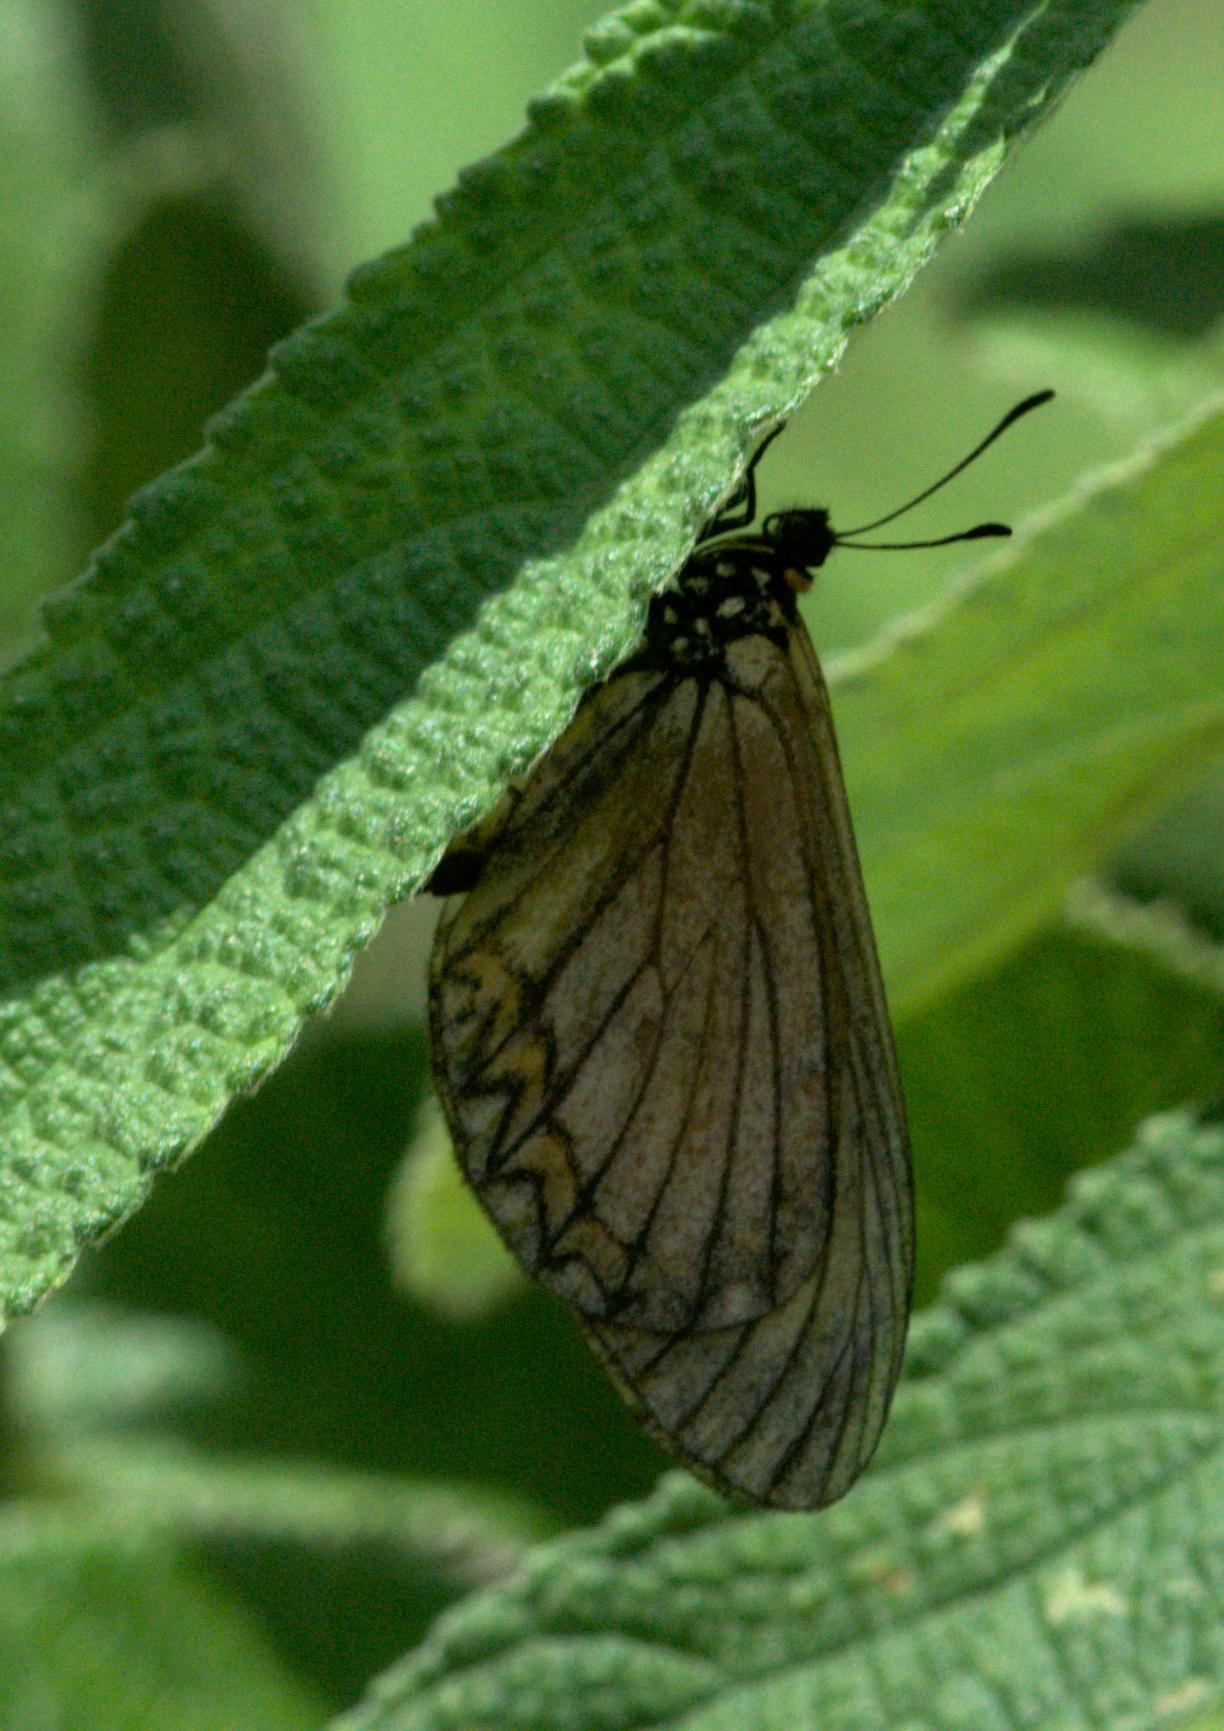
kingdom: Animalia
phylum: Arthropoda
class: Insecta
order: Lepidoptera
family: Nymphalidae
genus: Acraea
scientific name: Acraea Telchinia issoria
